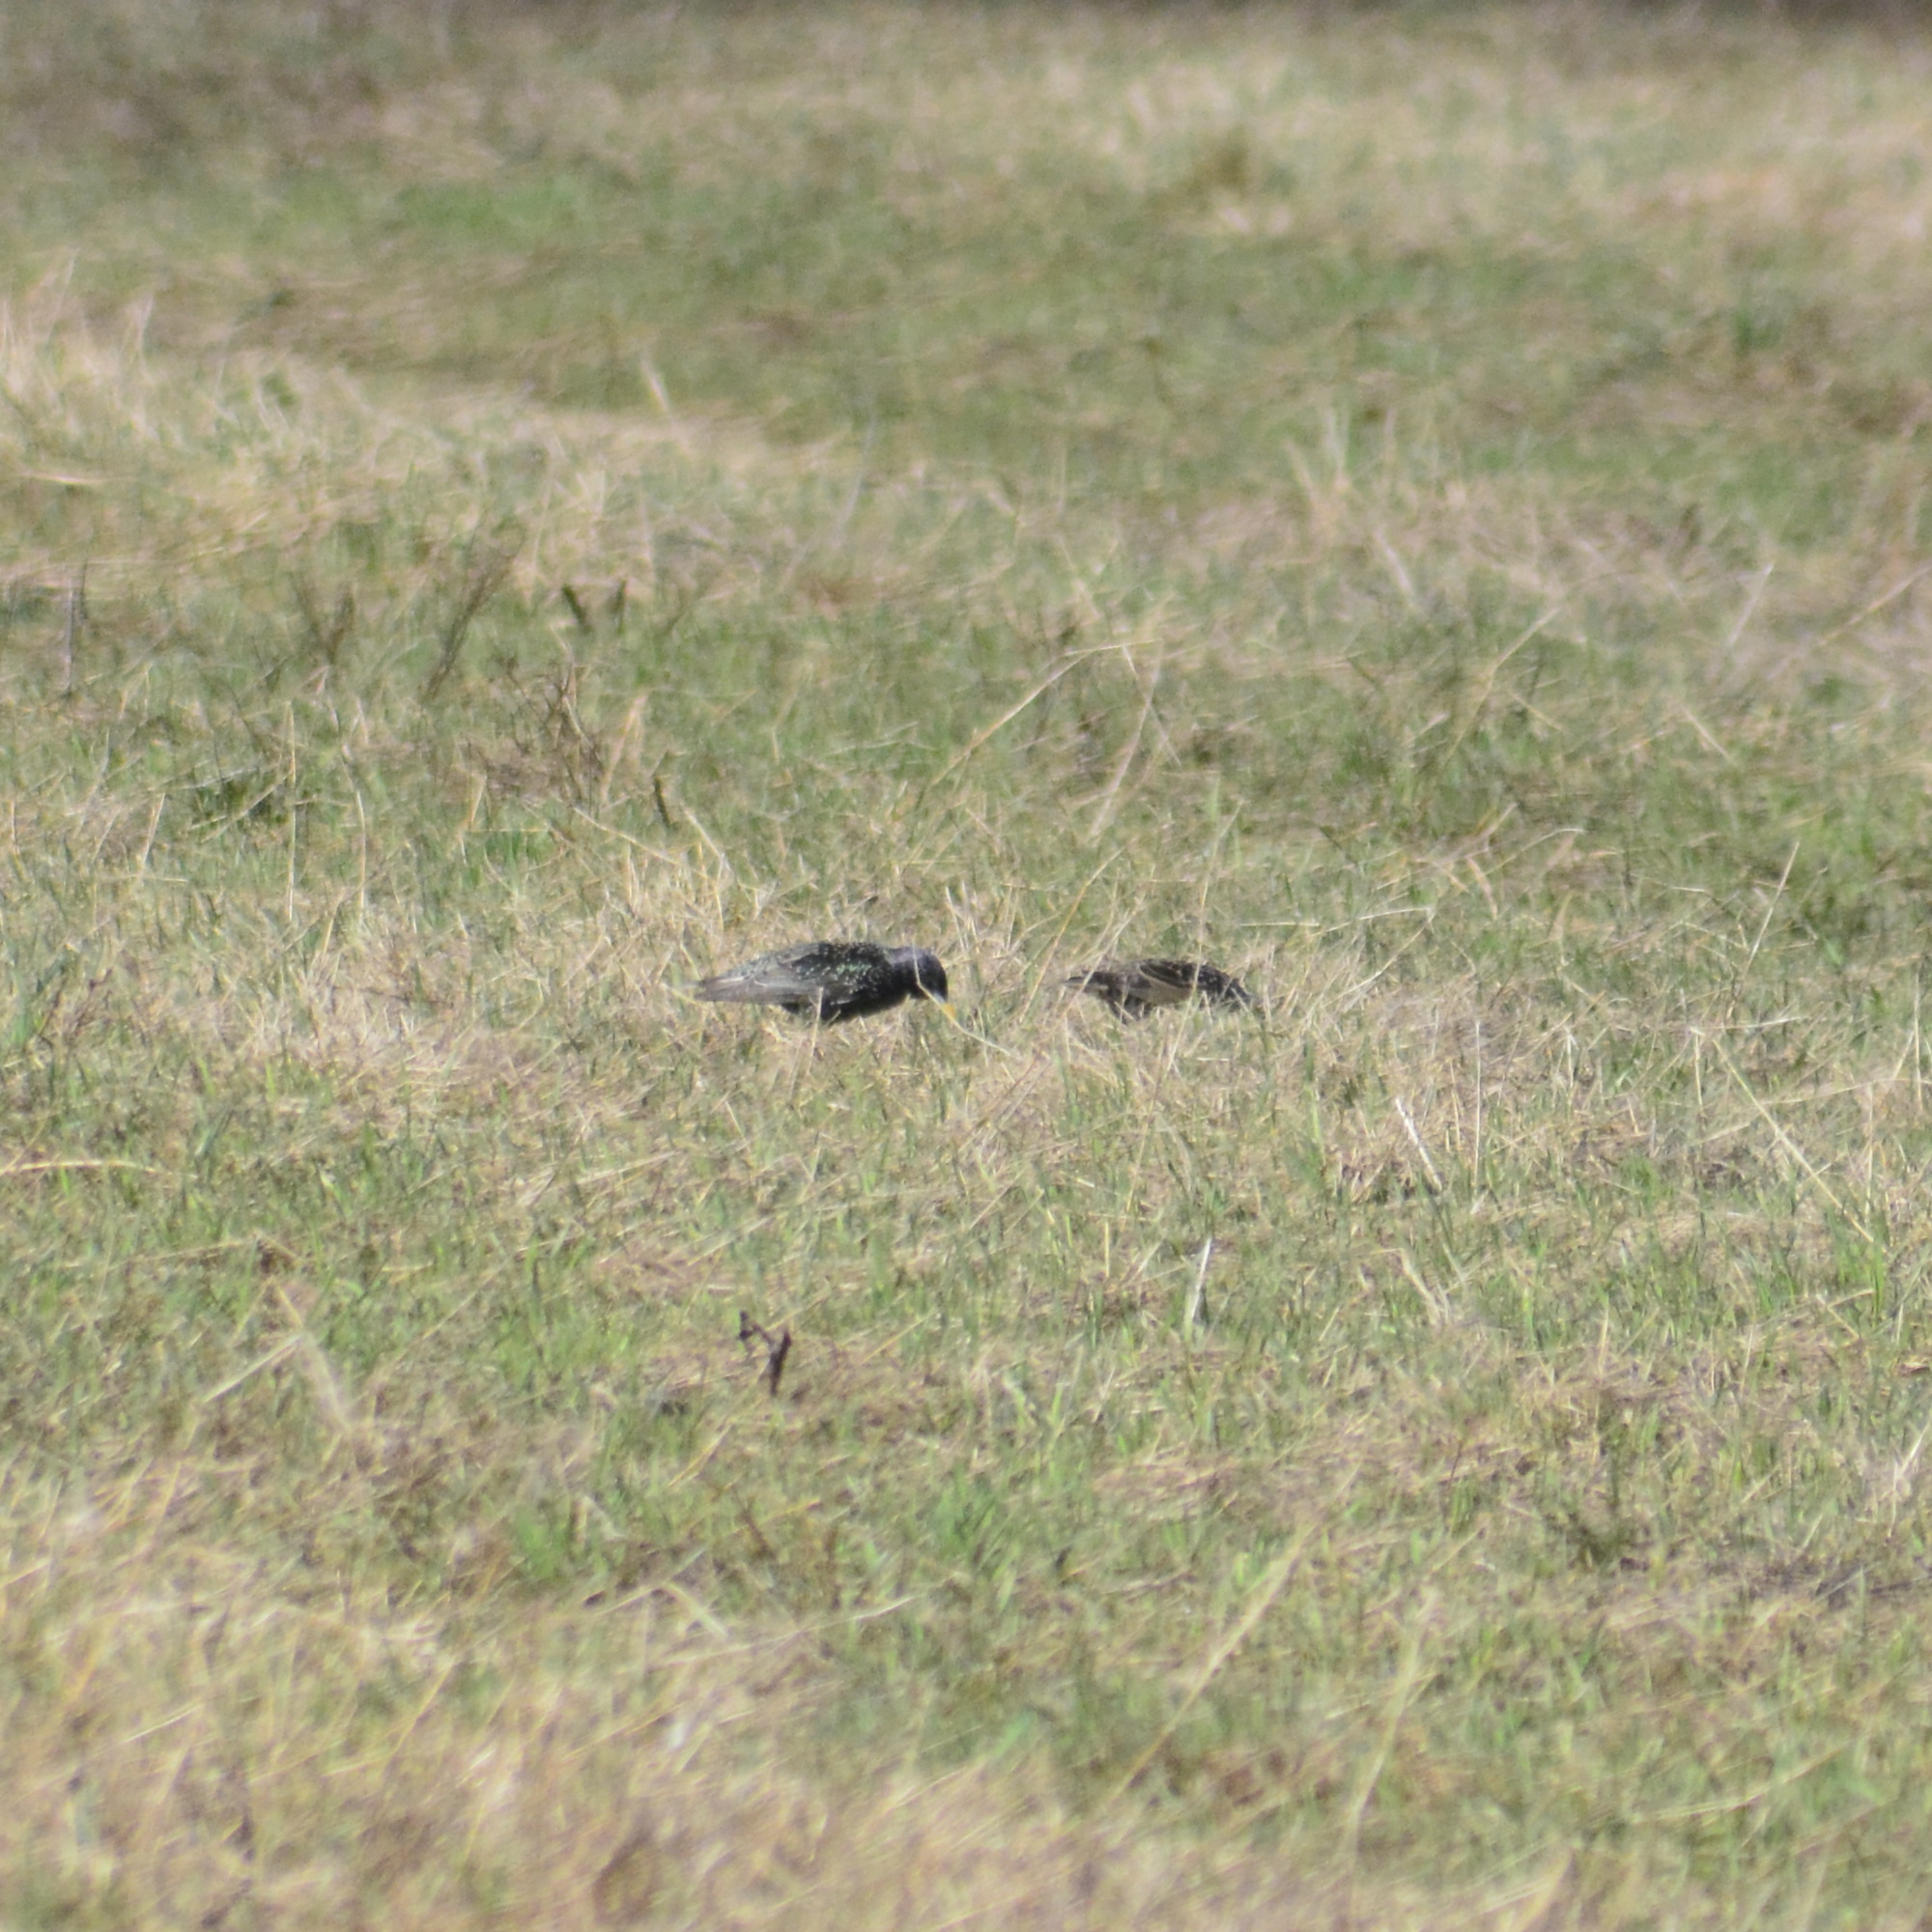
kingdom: Animalia
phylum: Chordata
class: Aves
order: Passeriformes
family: Sturnidae
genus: Sturnus
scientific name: Sturnus vulgaris
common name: Common starling
